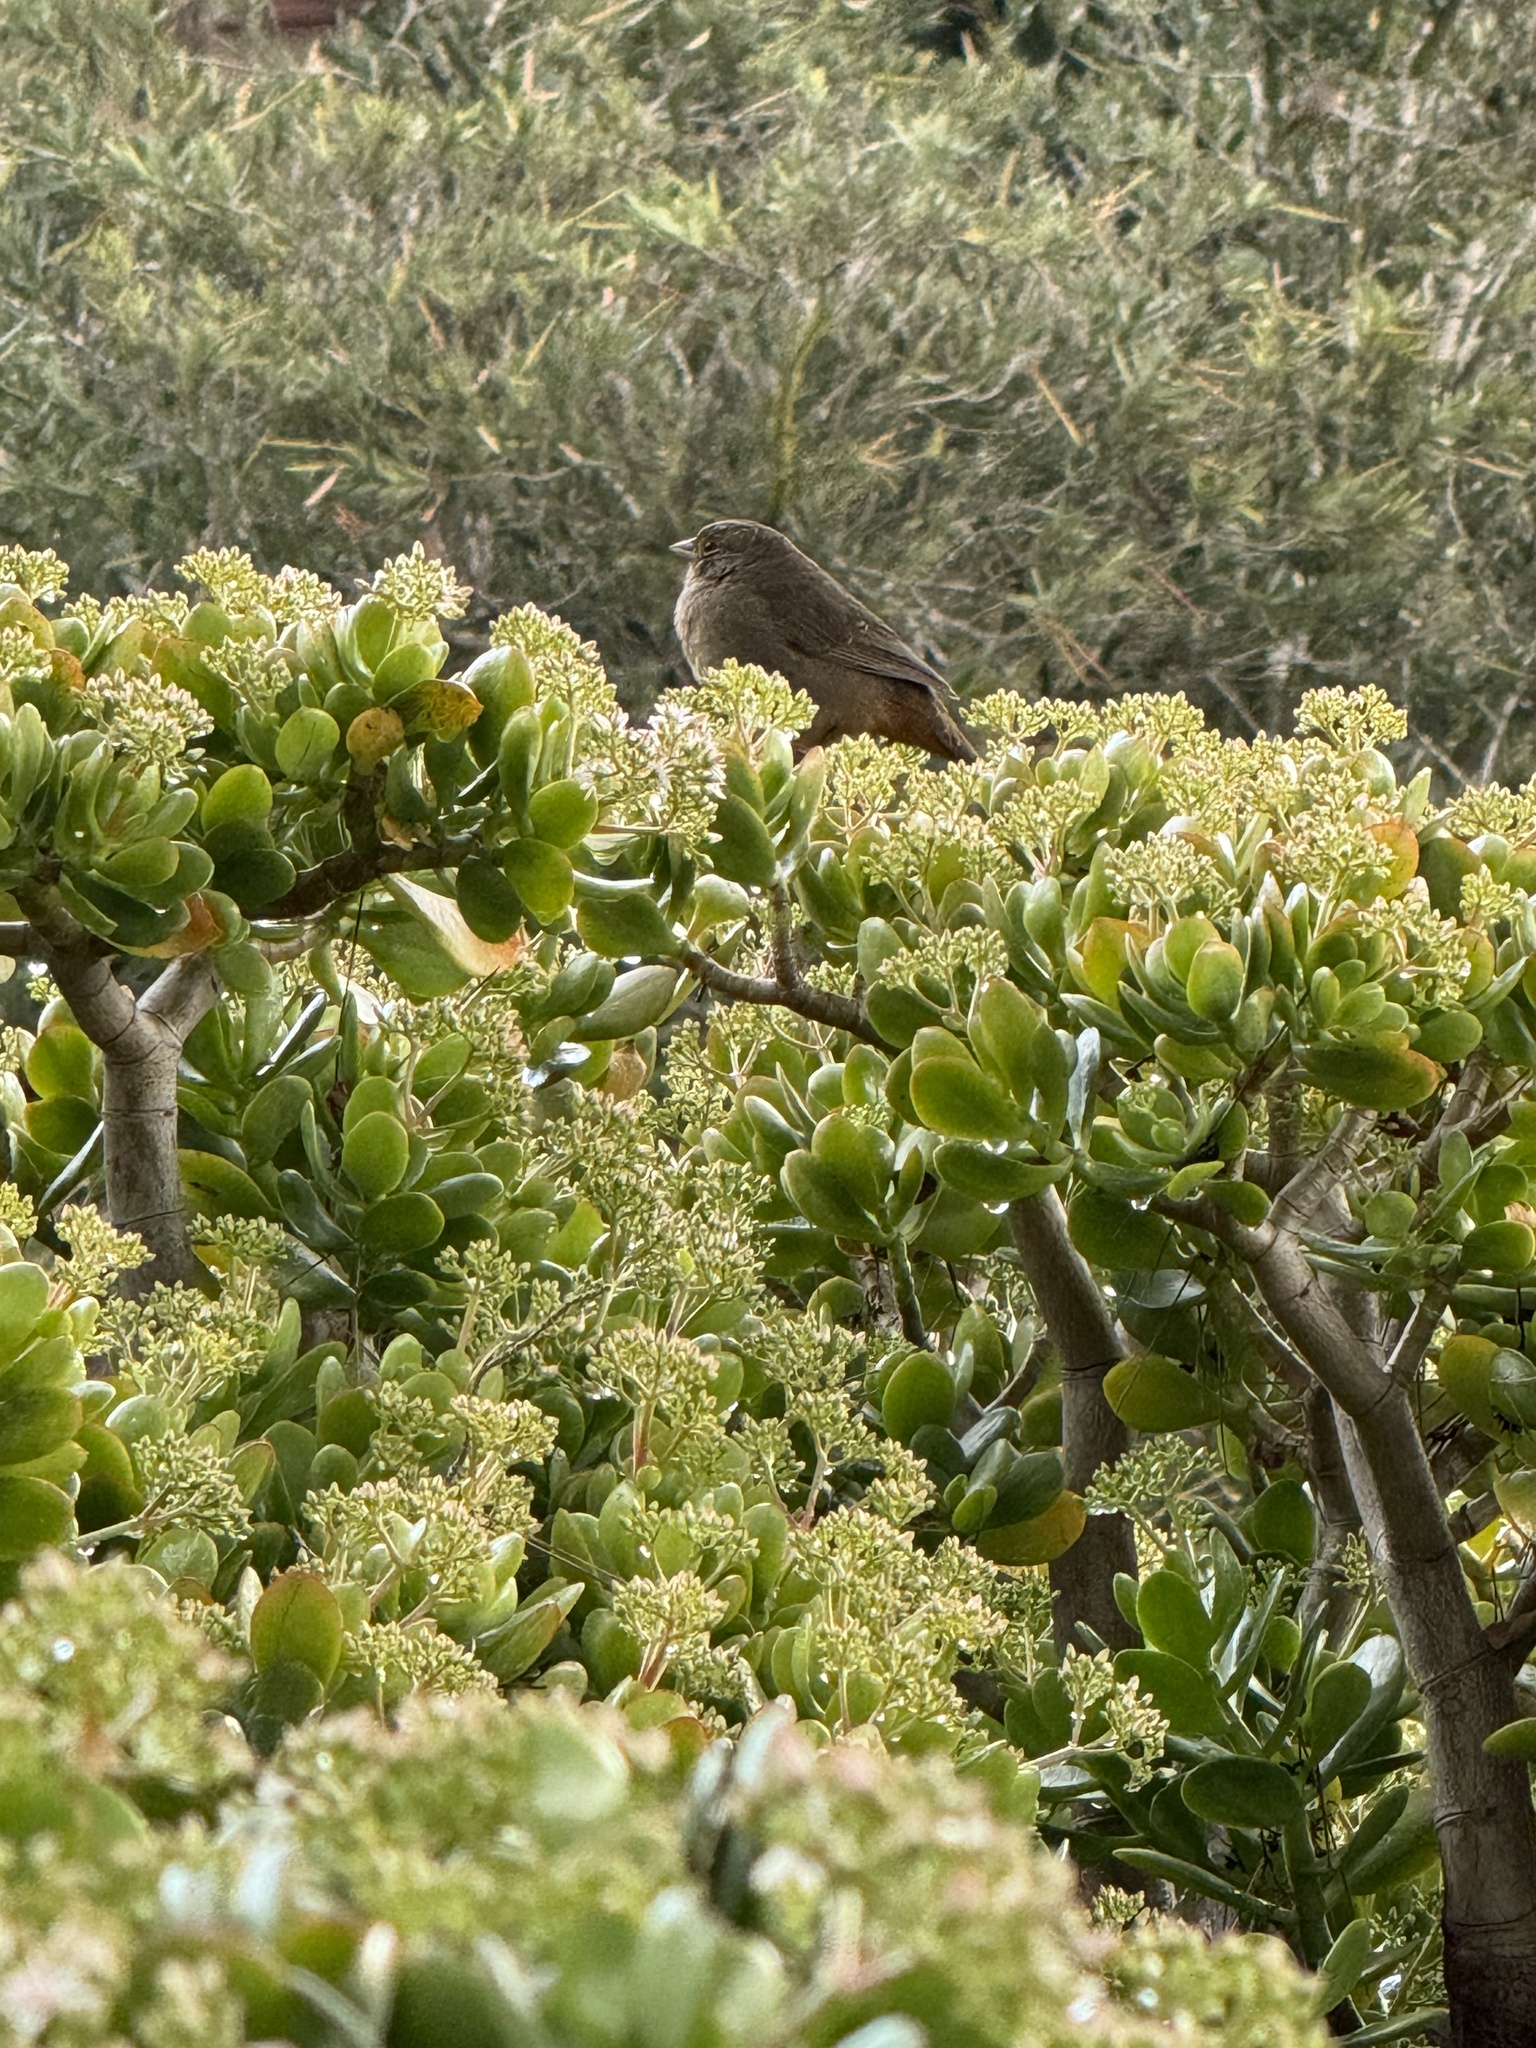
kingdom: Animalia
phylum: Chordata
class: Aves
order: Passeriformes
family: Passerellidae
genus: Melozone
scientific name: Melozone crissalis
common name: California towhee
